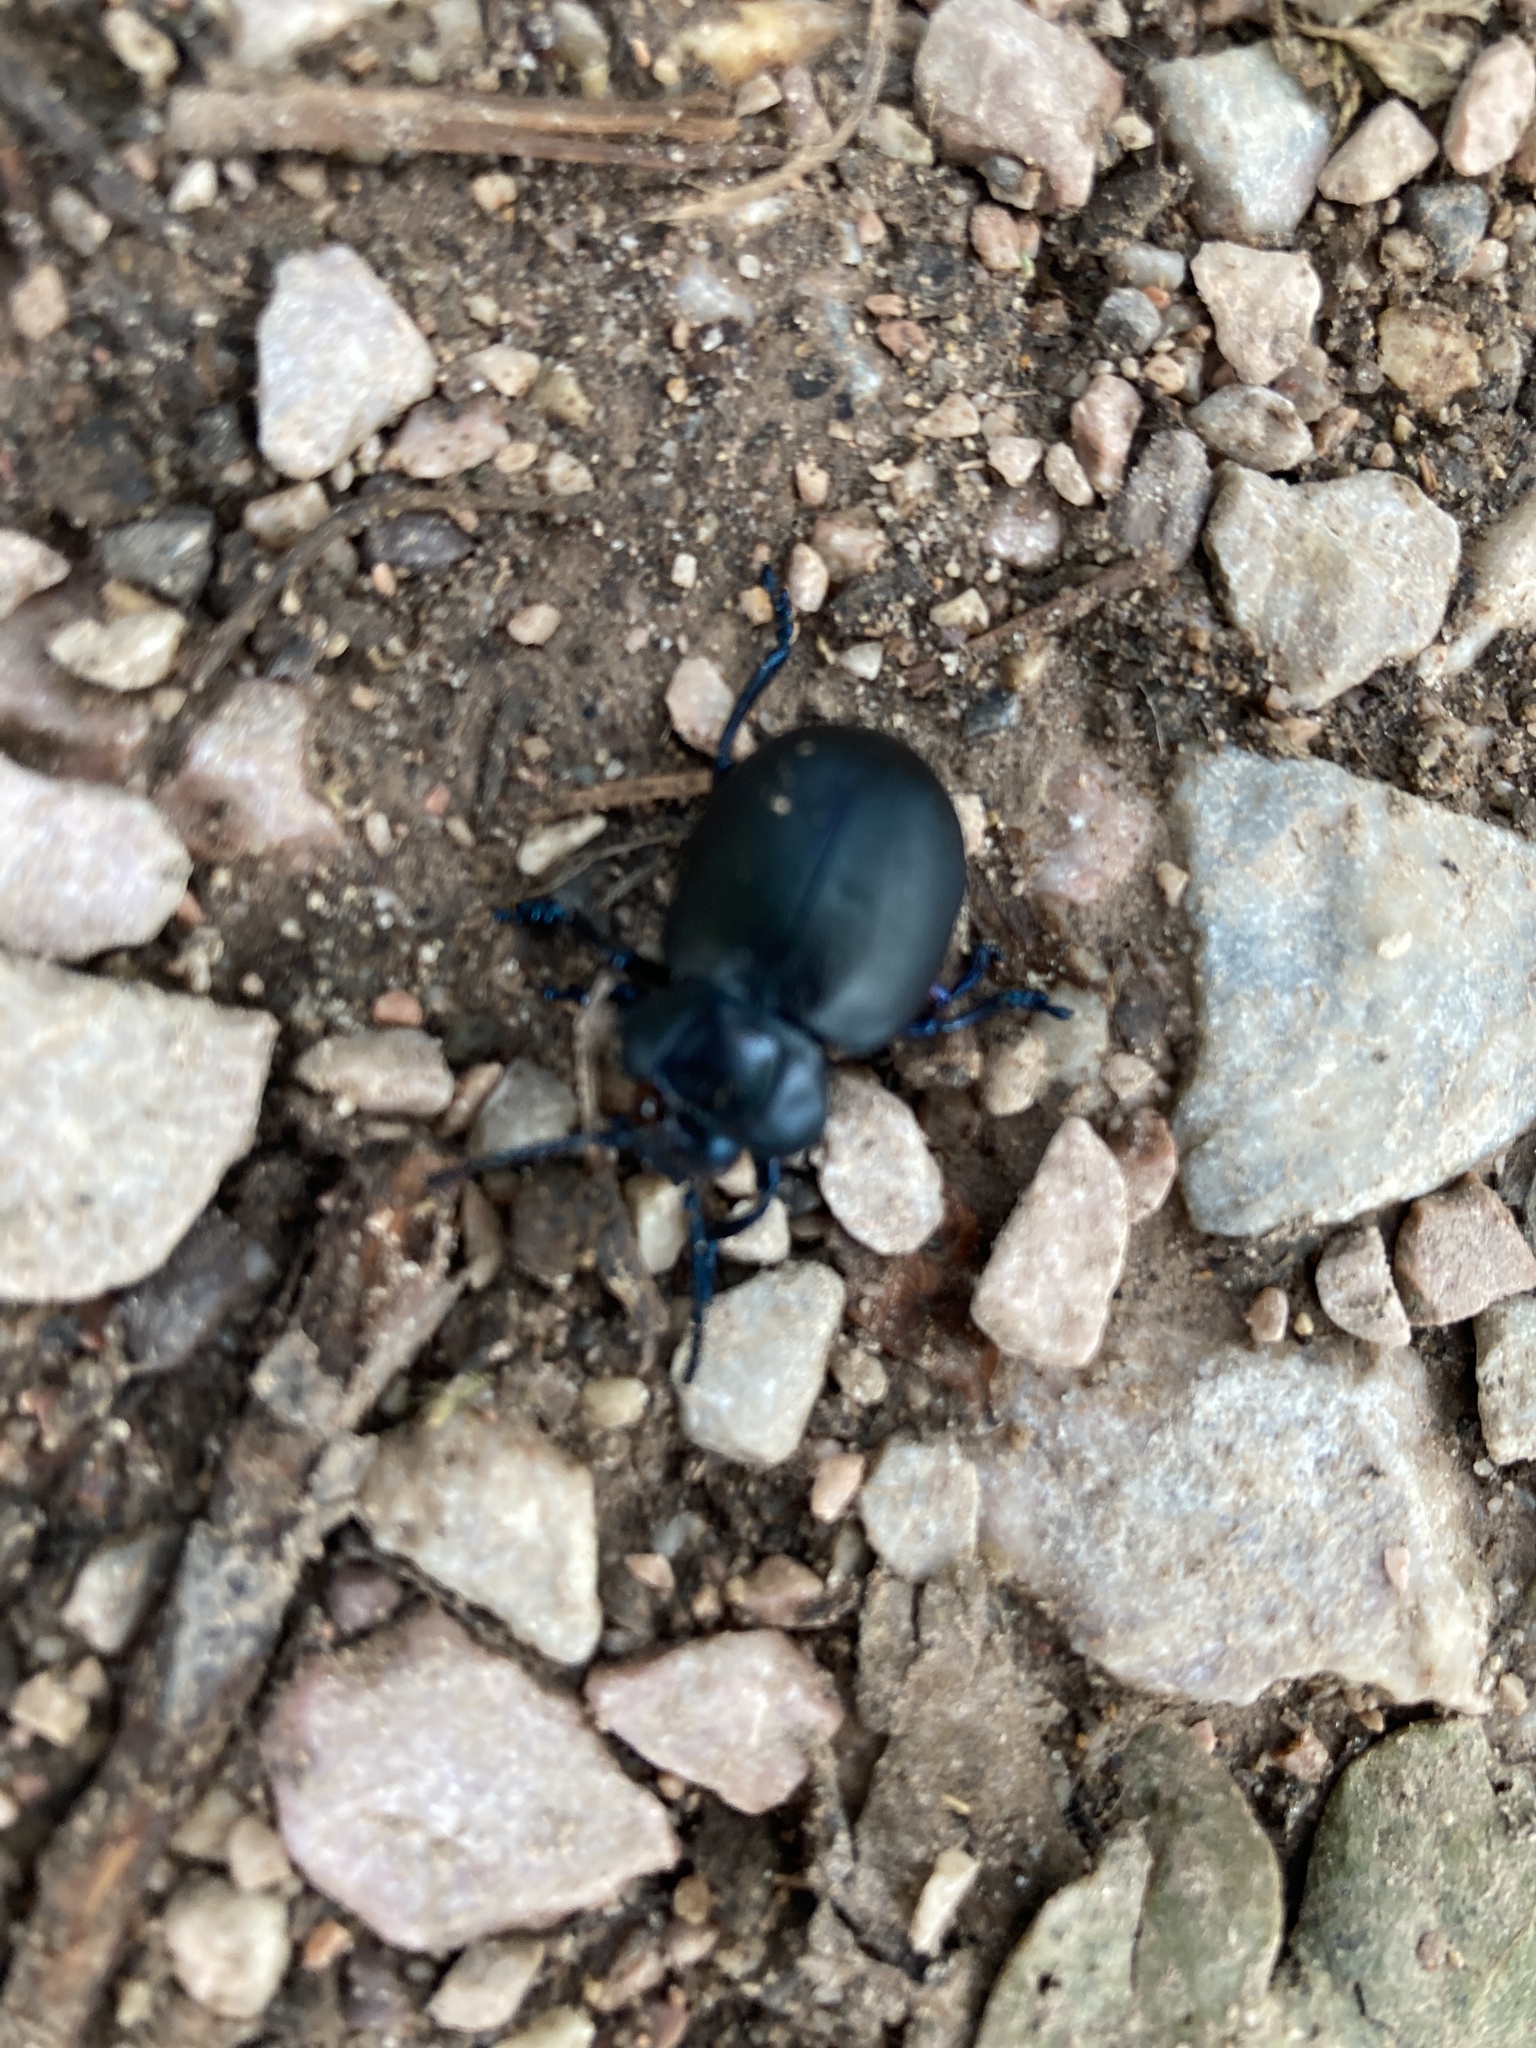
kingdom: Animalia
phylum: Arthropoda
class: Insecta
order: Coleoptera
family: Chrysomelidae
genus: Timarcha
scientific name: Timarcha tenebricosa
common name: Bloody-nosed beetle
